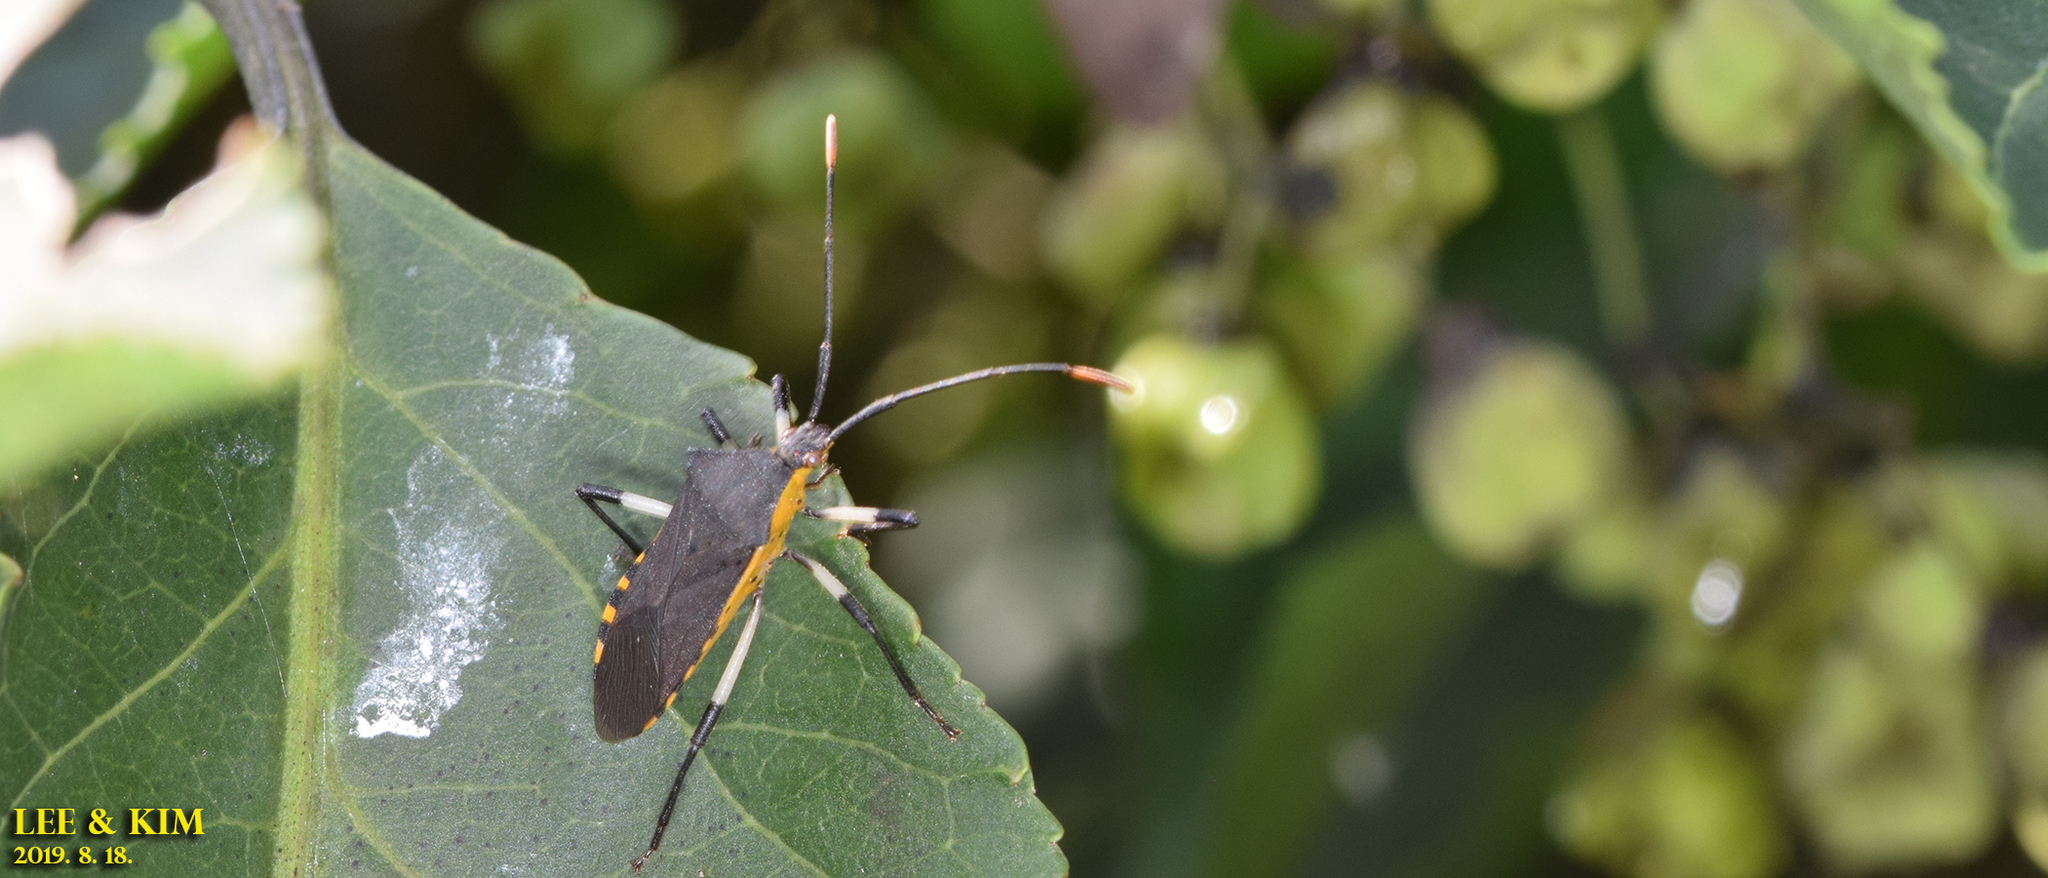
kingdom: Animalia
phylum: Arthropoda
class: Insecta
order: Hemiptera
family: Coreidae
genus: Plinachtus
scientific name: Plinachtus bicoloripes
